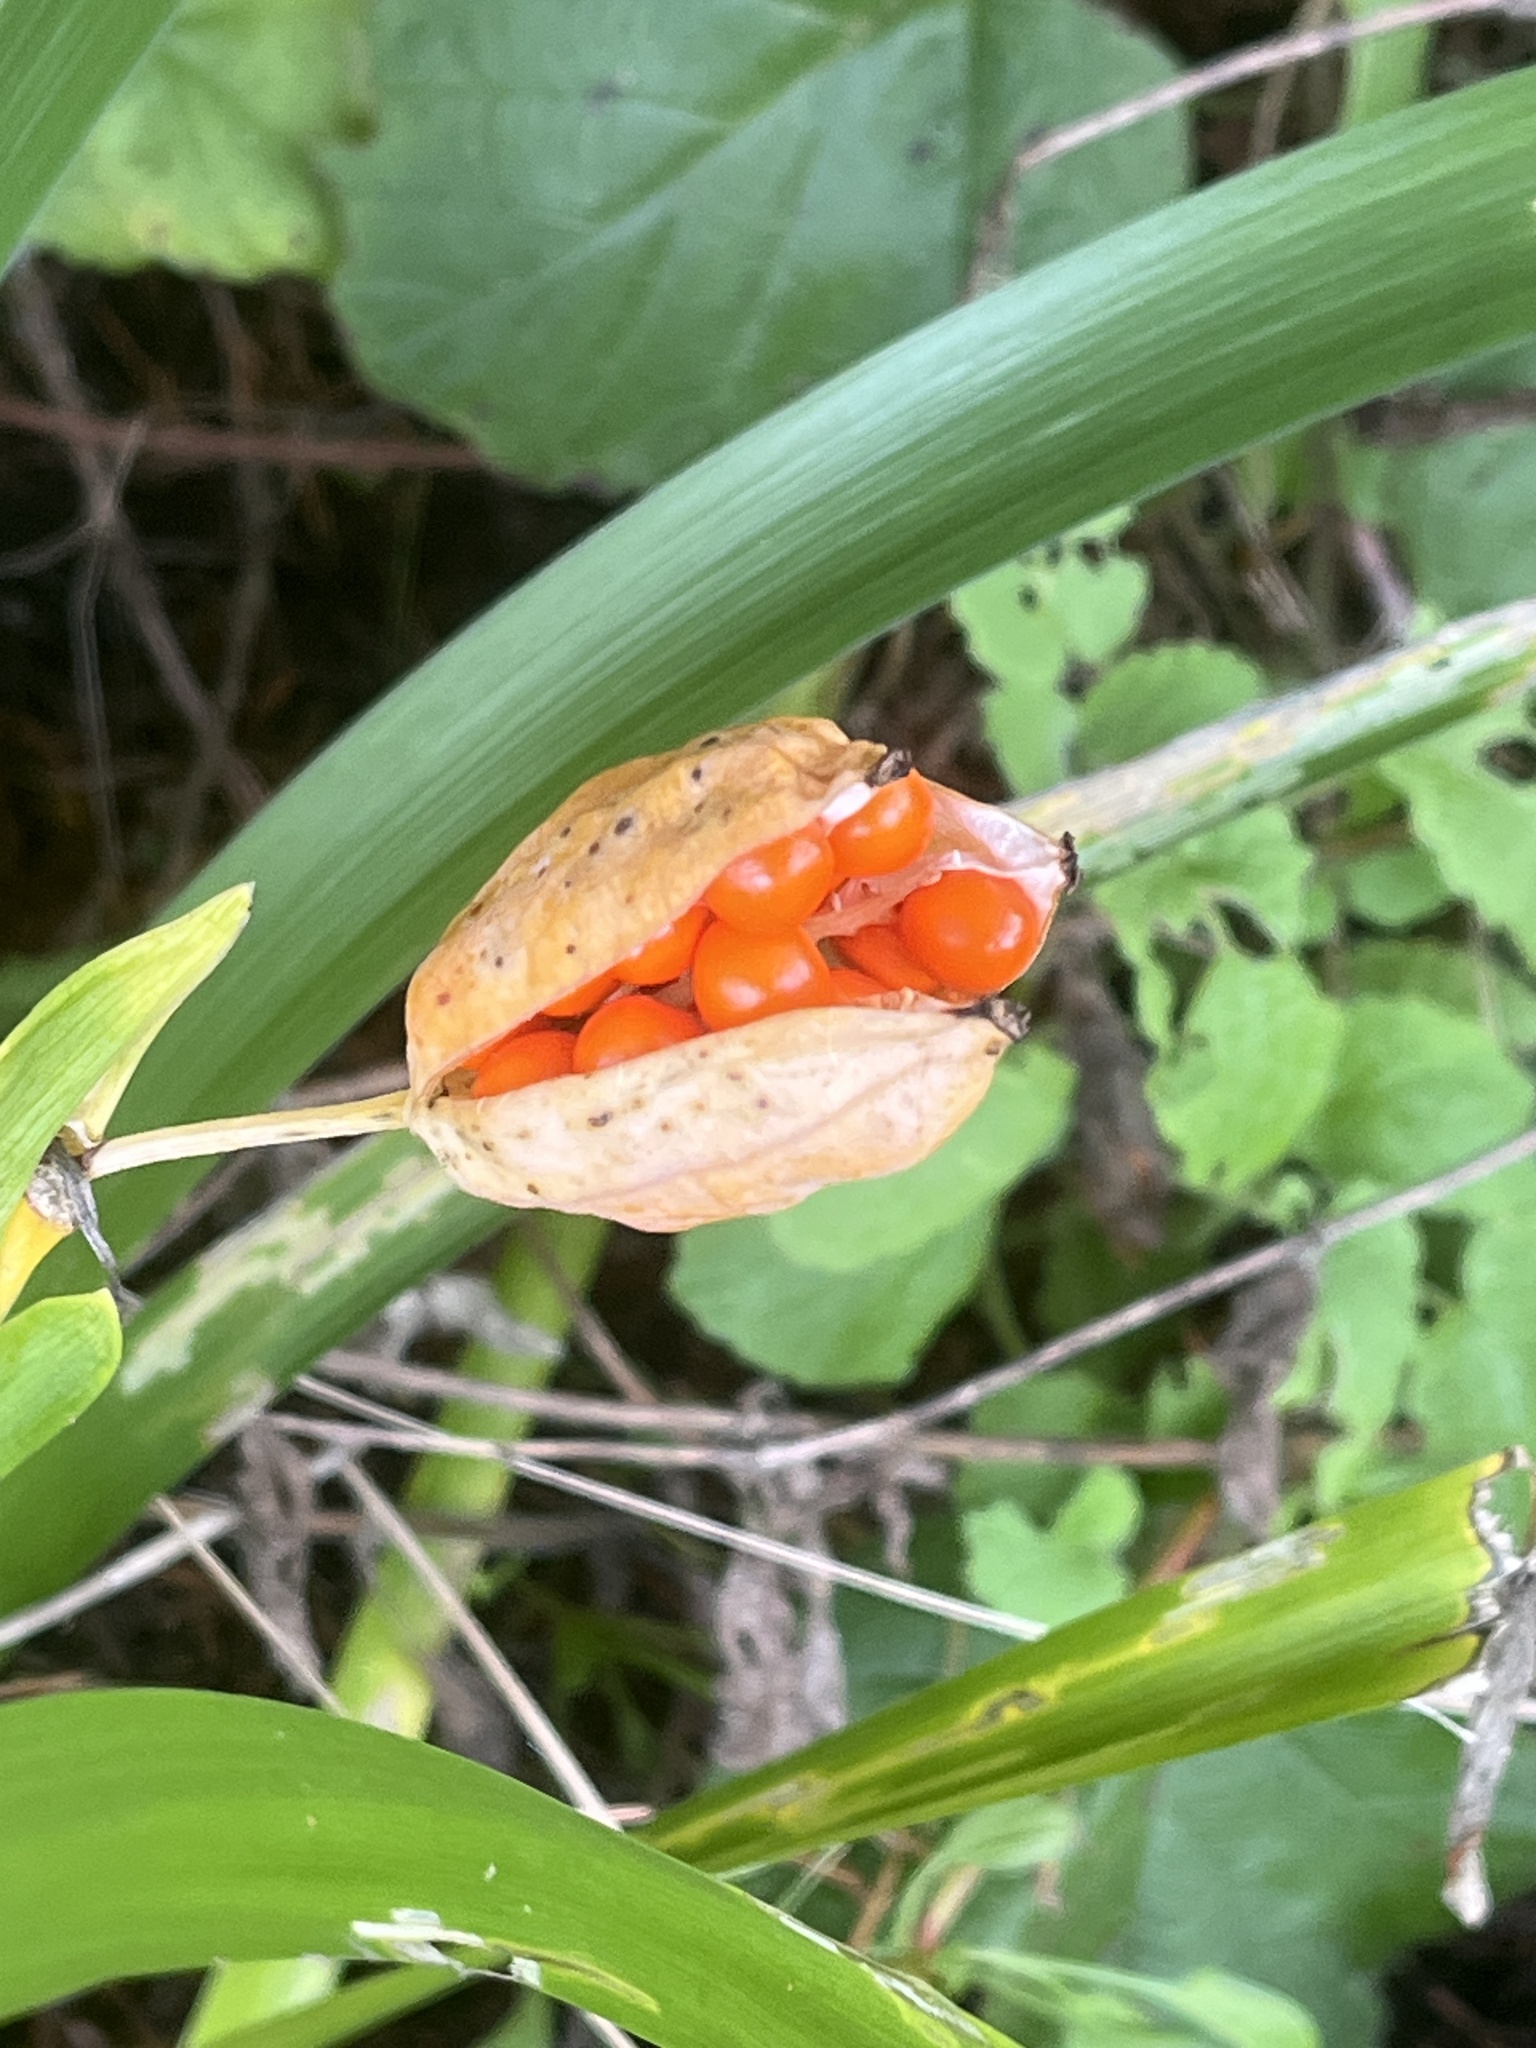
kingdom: Plantae
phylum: Tracheophyta
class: Liliopsida
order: Asparagales
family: Iridaceae
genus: Iris
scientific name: Iris foetidissima
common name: Stinking iris
